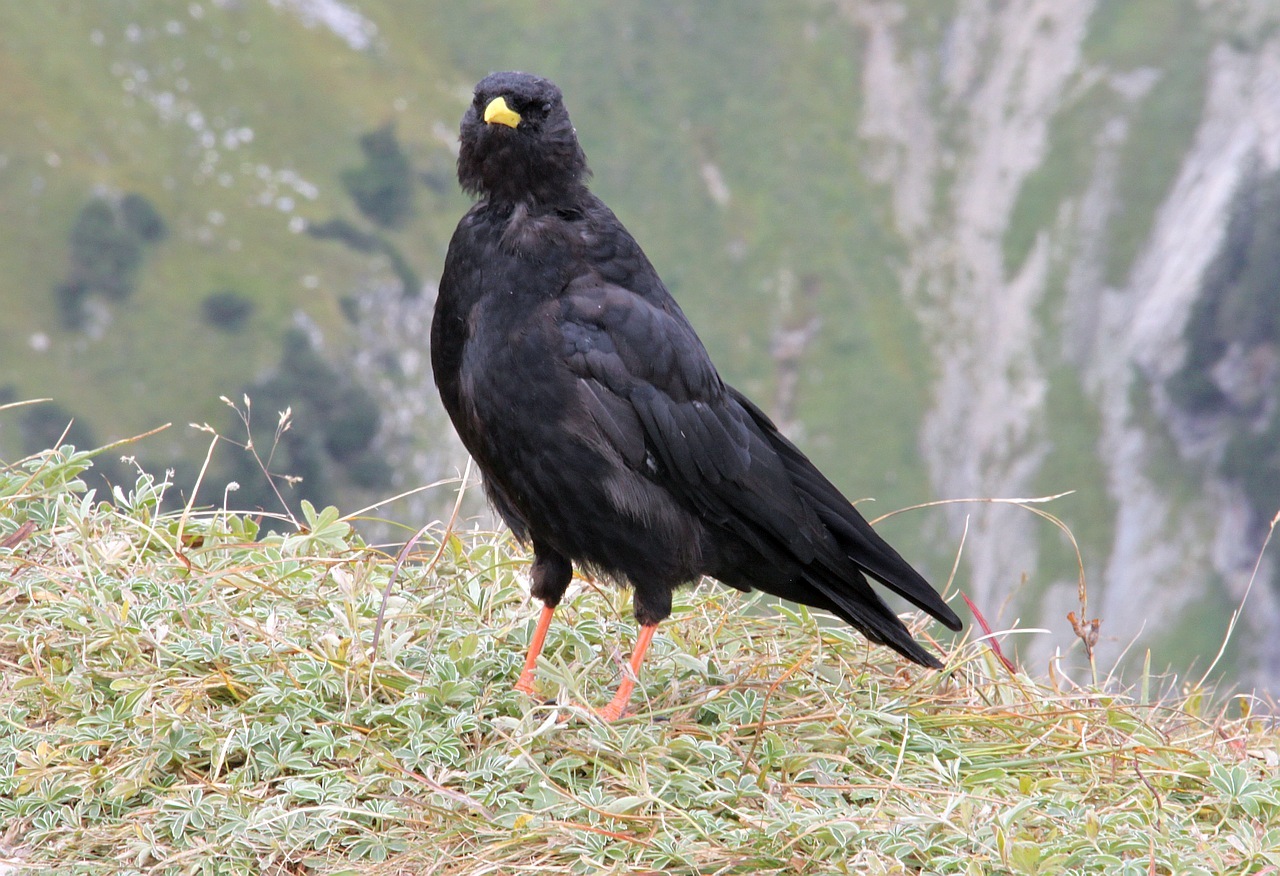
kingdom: Animalia
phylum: Chordata
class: Aves
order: Passeriformes
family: Corvidae
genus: Pyrrhocorax
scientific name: Pyrrhocorax graculus
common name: Alpine chough
